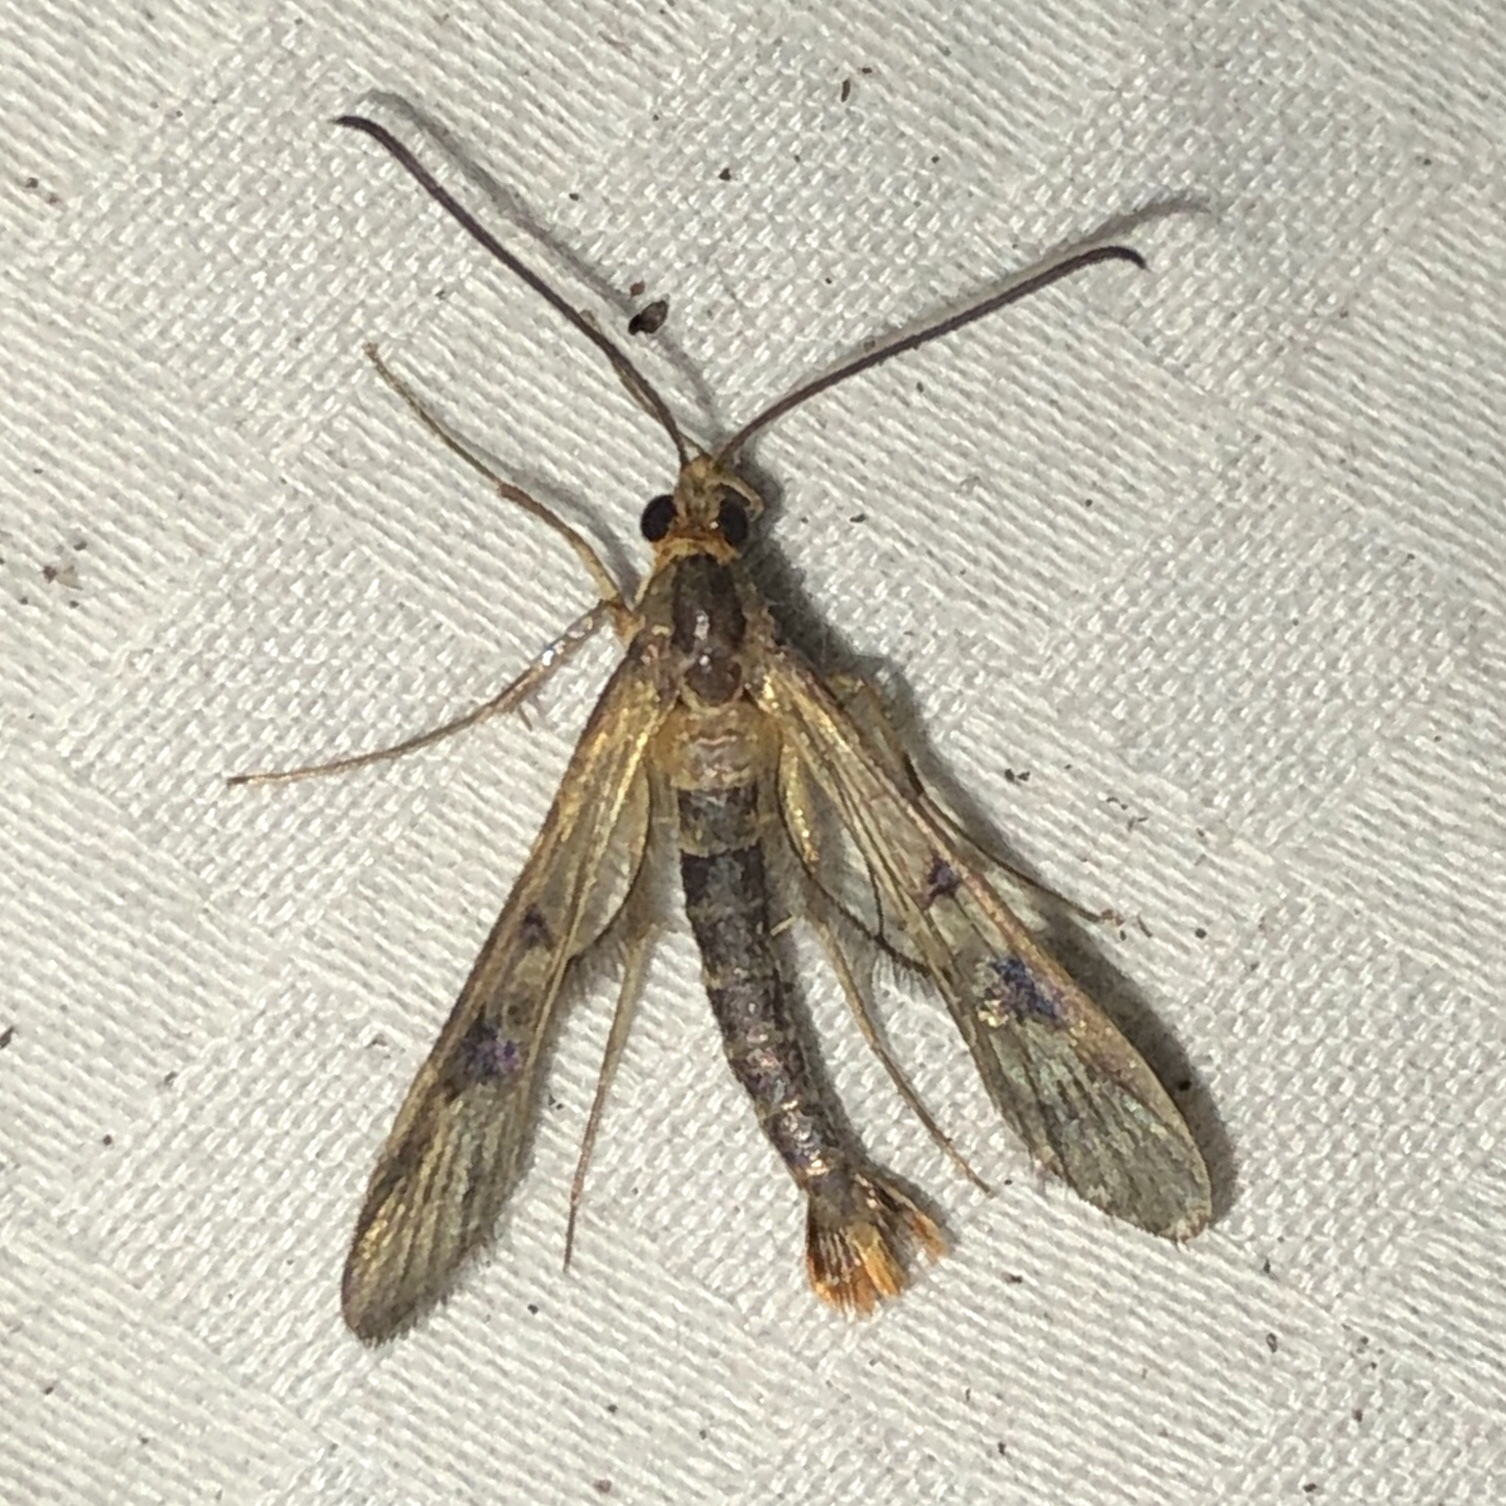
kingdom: Animalia
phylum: Arthropoda
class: Insecta
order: Lepidoptera
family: Sesiidae
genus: Synanthedon
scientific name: Synanthedon acerni
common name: Maple callus borer moth
